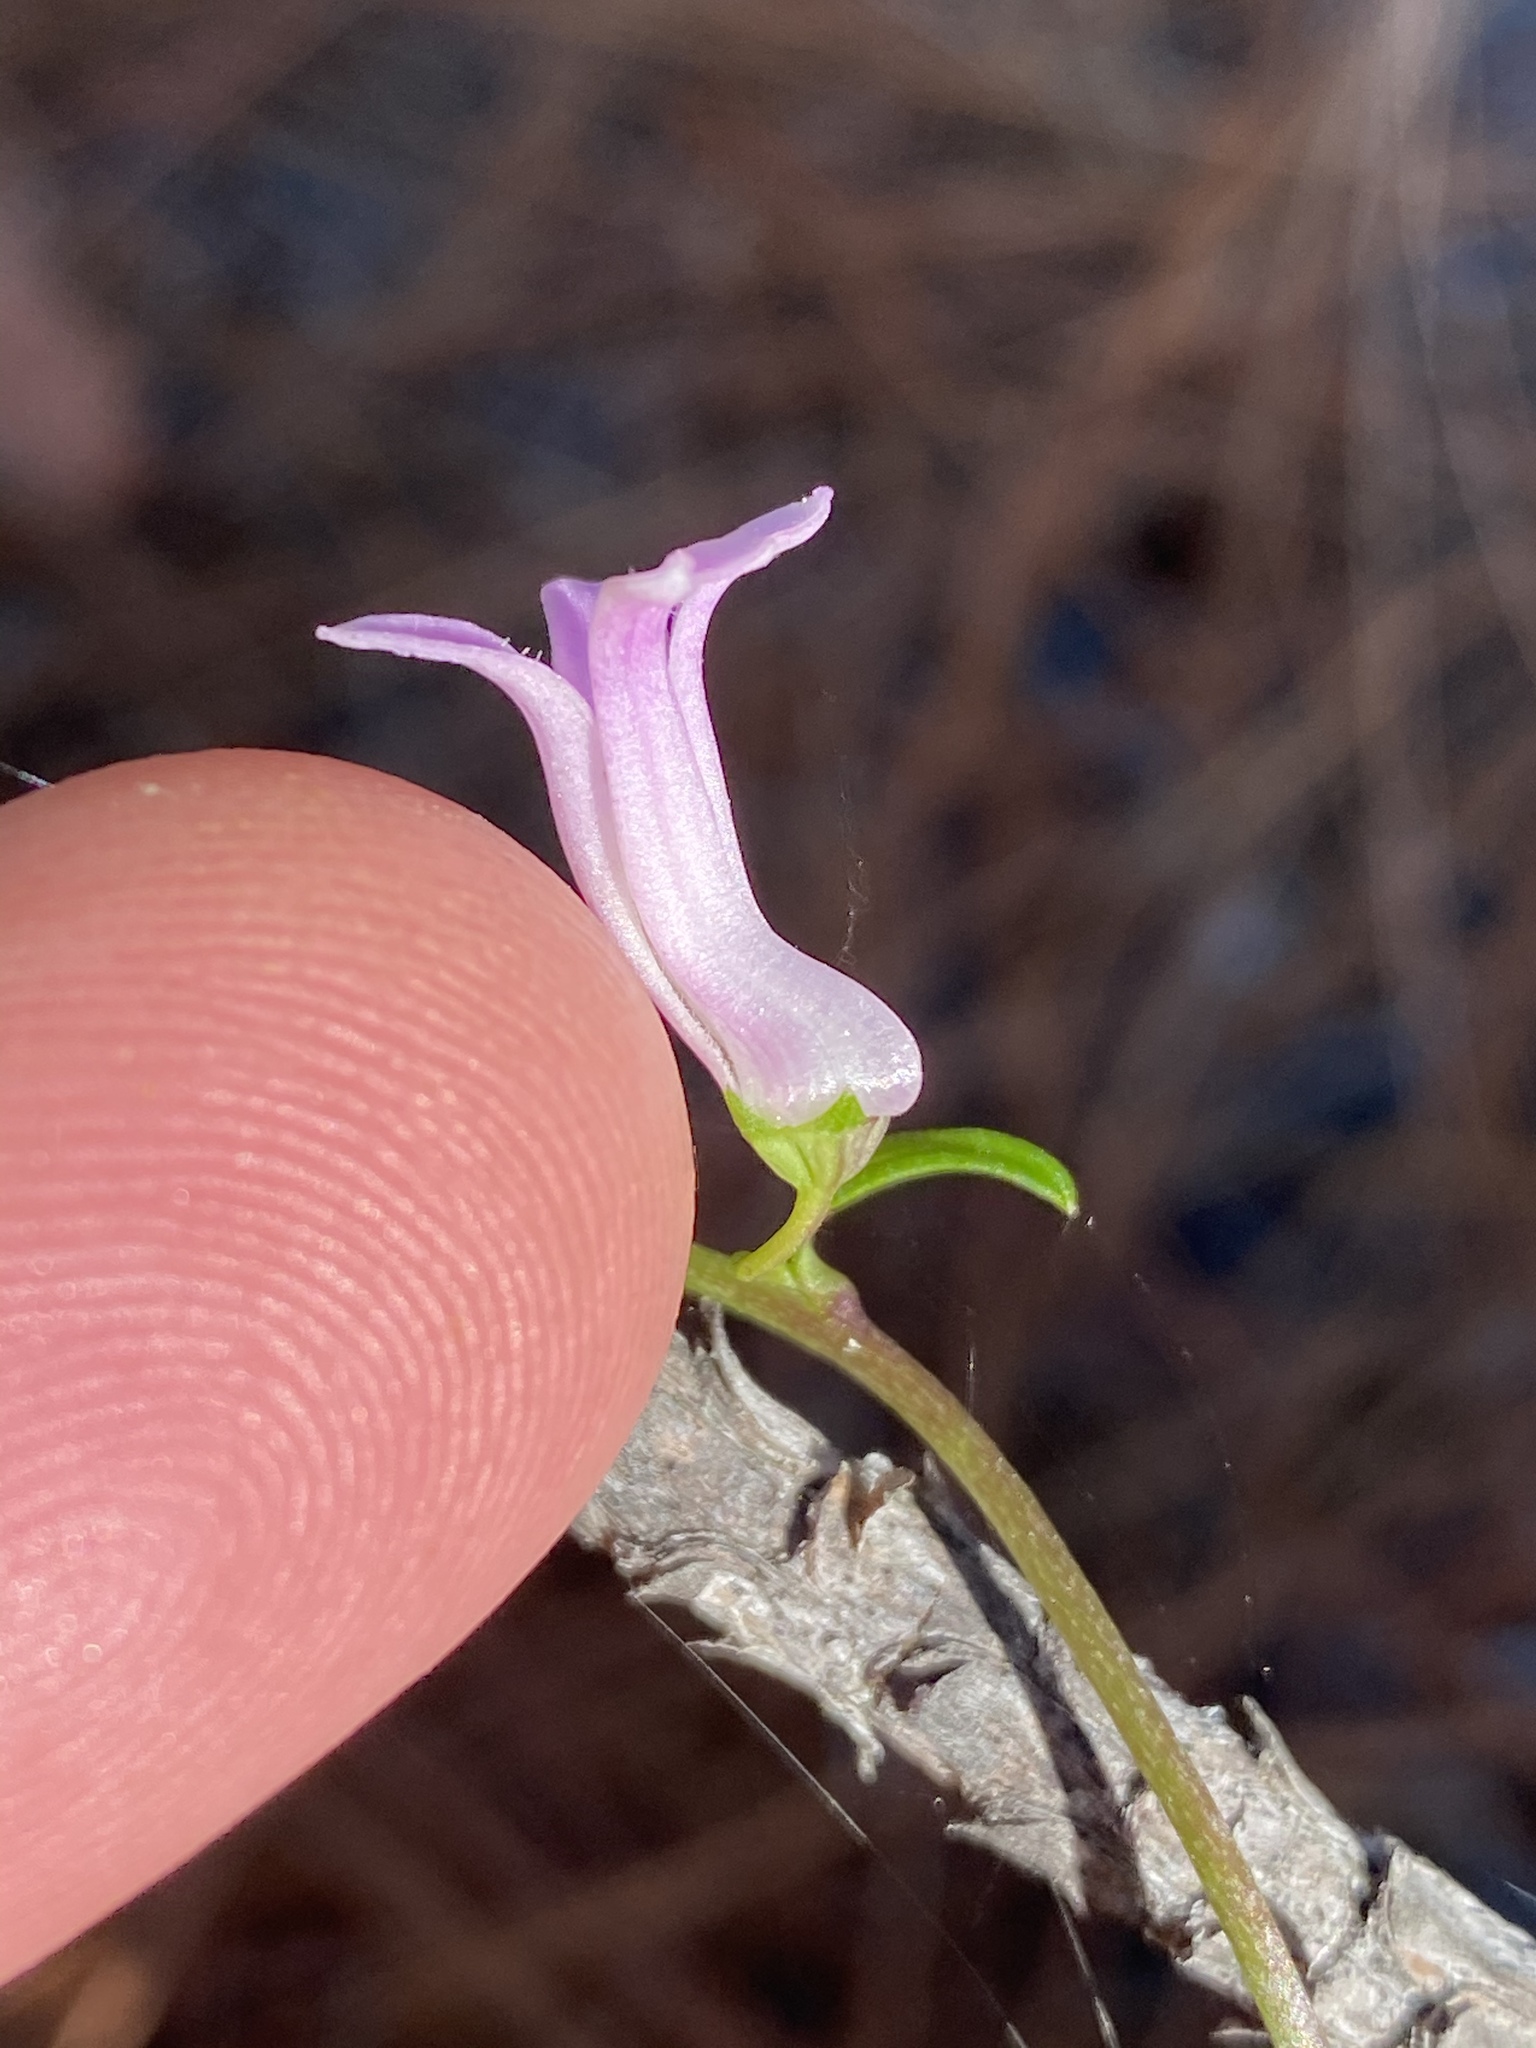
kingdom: Plantae
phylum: Tracheophyta
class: Magnoliopsida
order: Asterales
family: Campanulaceae
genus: Cyphia
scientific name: Cyphia digitata
